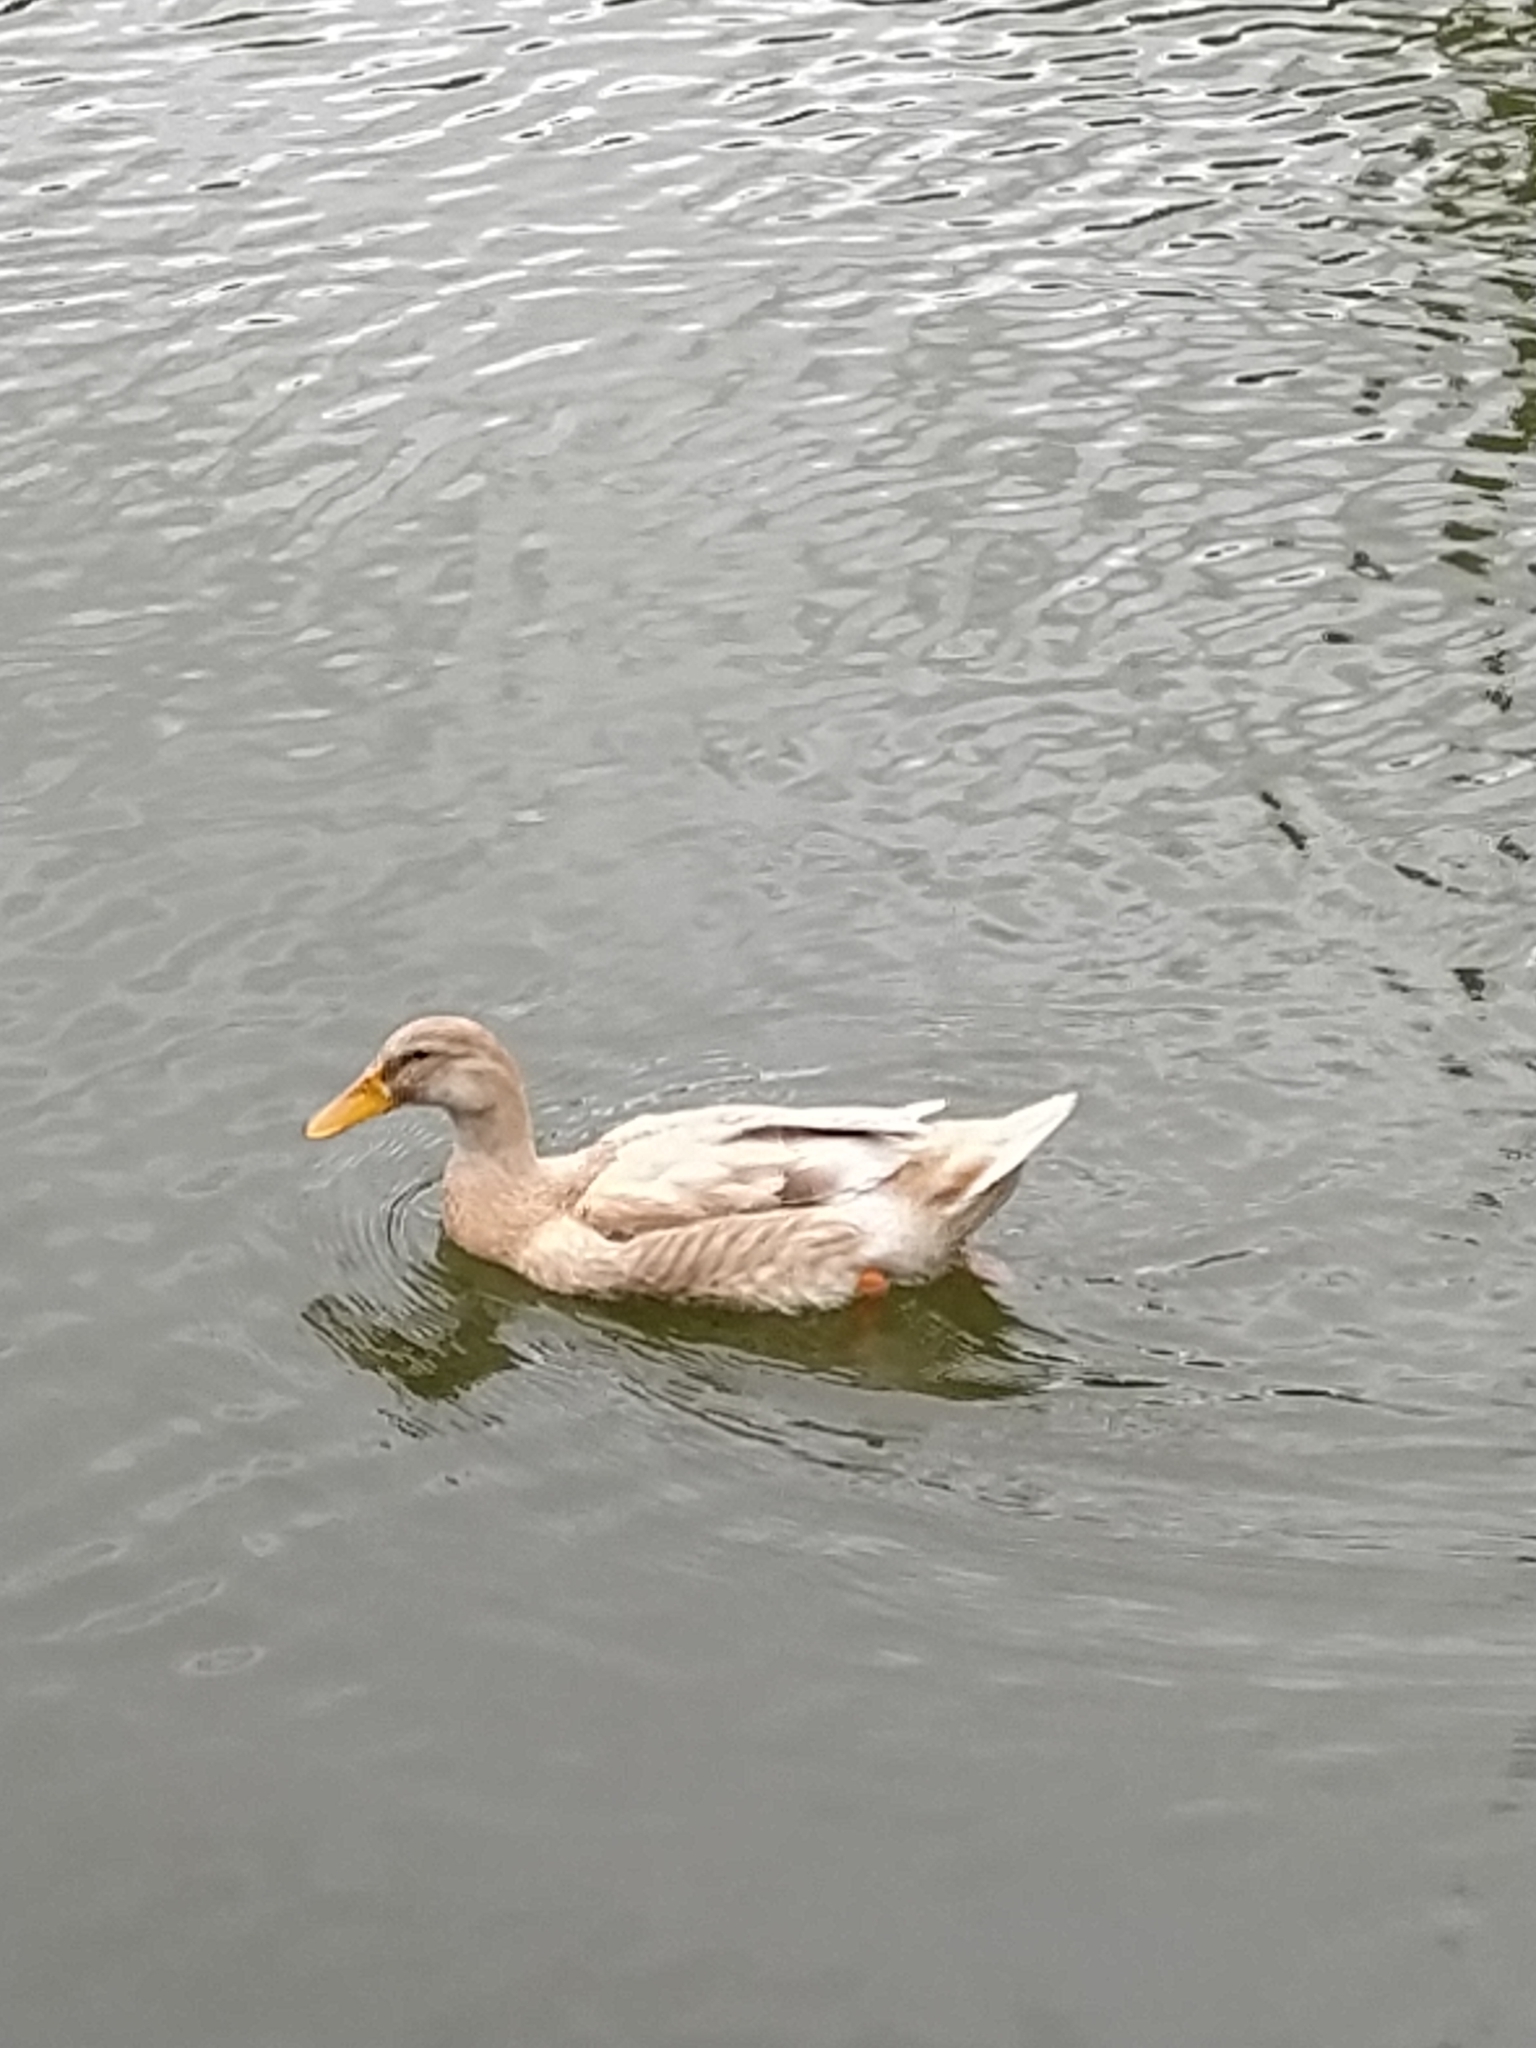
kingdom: Animalia
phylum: Chordata
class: Aves
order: Anseriformes
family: Anatidae
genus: Anas
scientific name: Anas platyrhynchos
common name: Mallard
